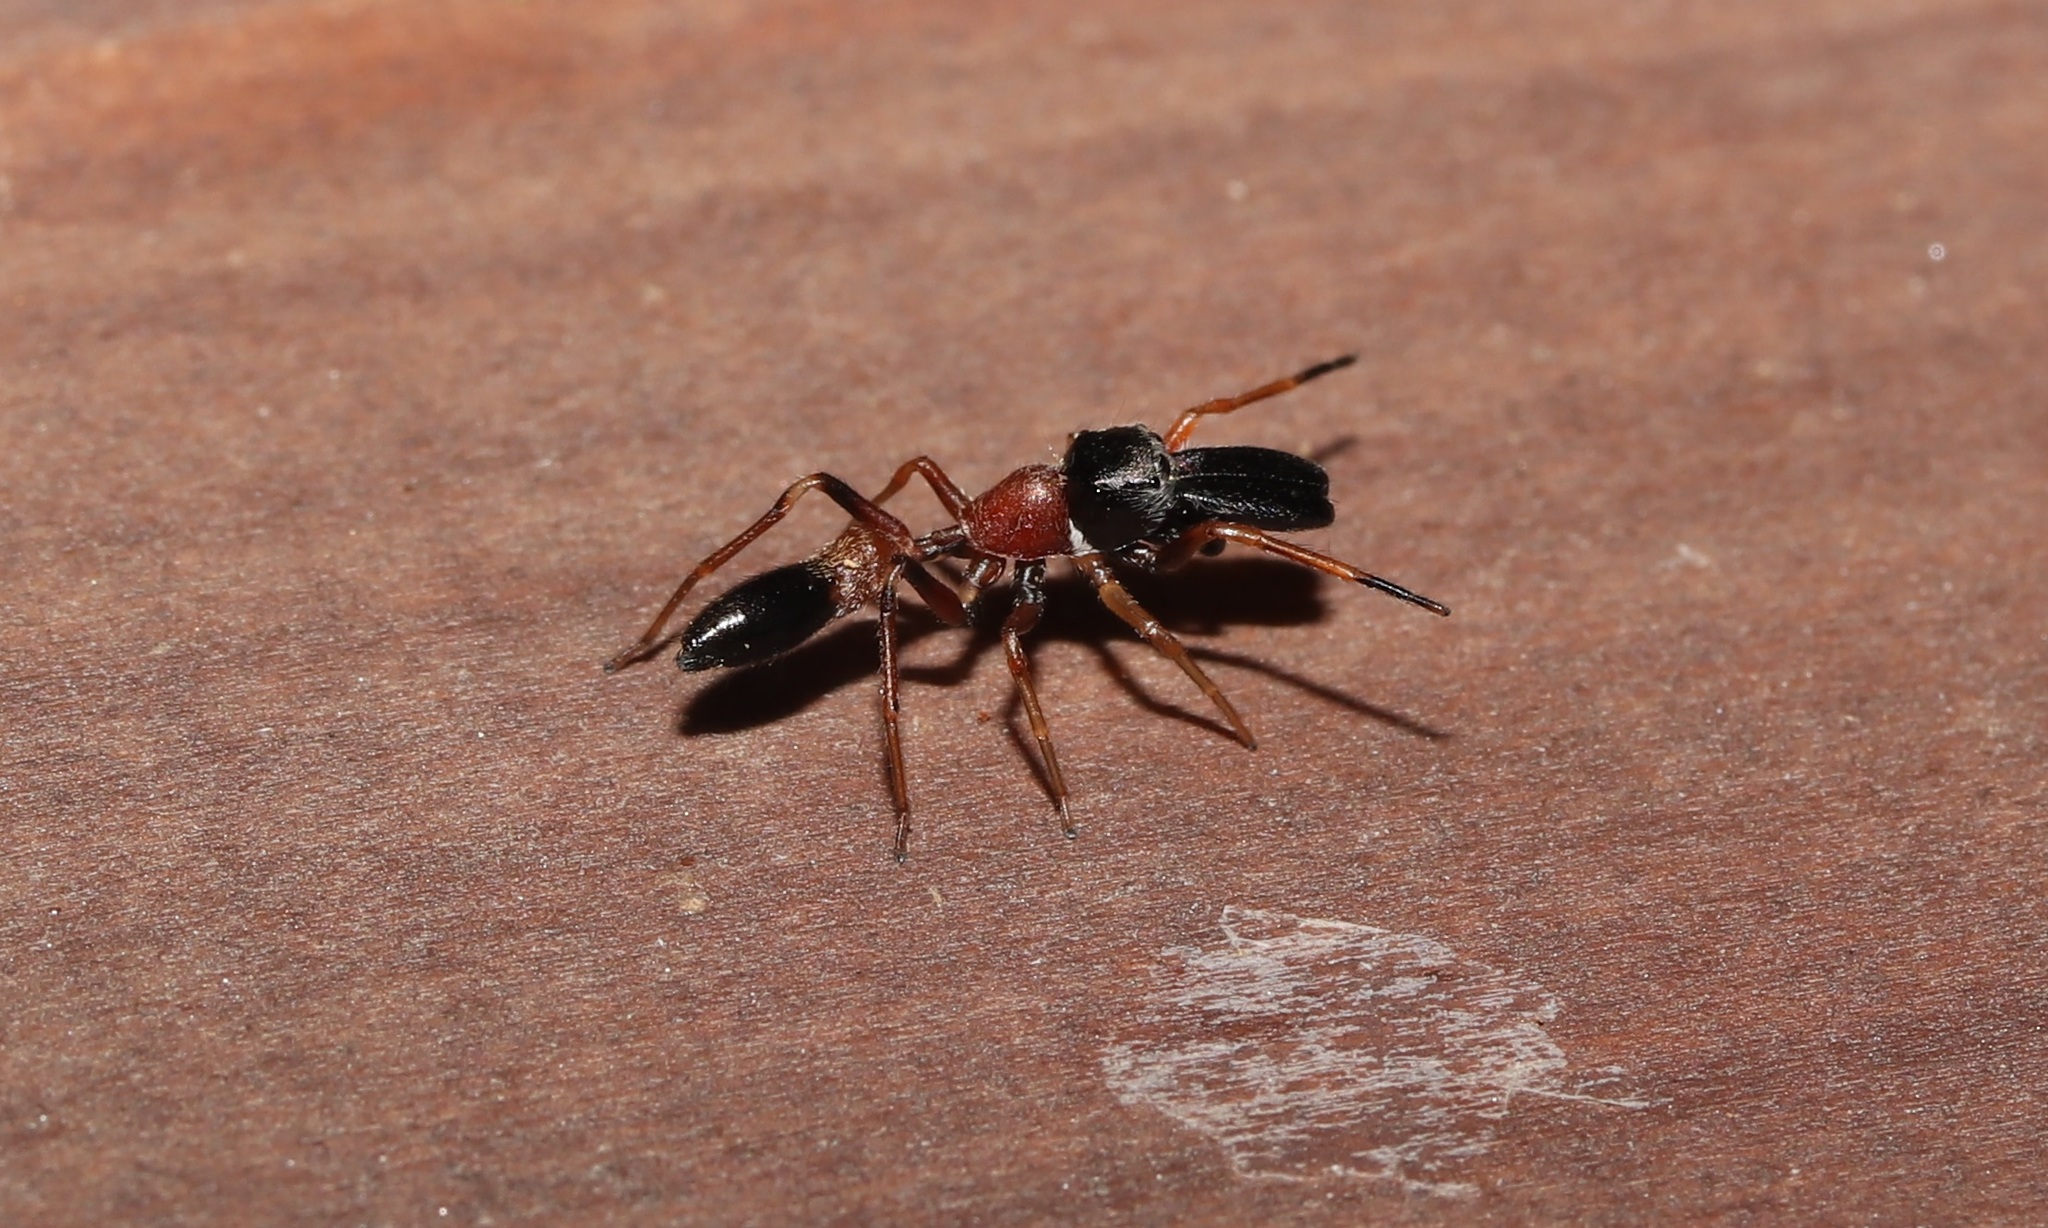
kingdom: Animalia
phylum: Arthropoda
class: Arachnida
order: Araneae
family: Salticidae
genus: Myrmarachne
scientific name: Myrmarachne elongata
